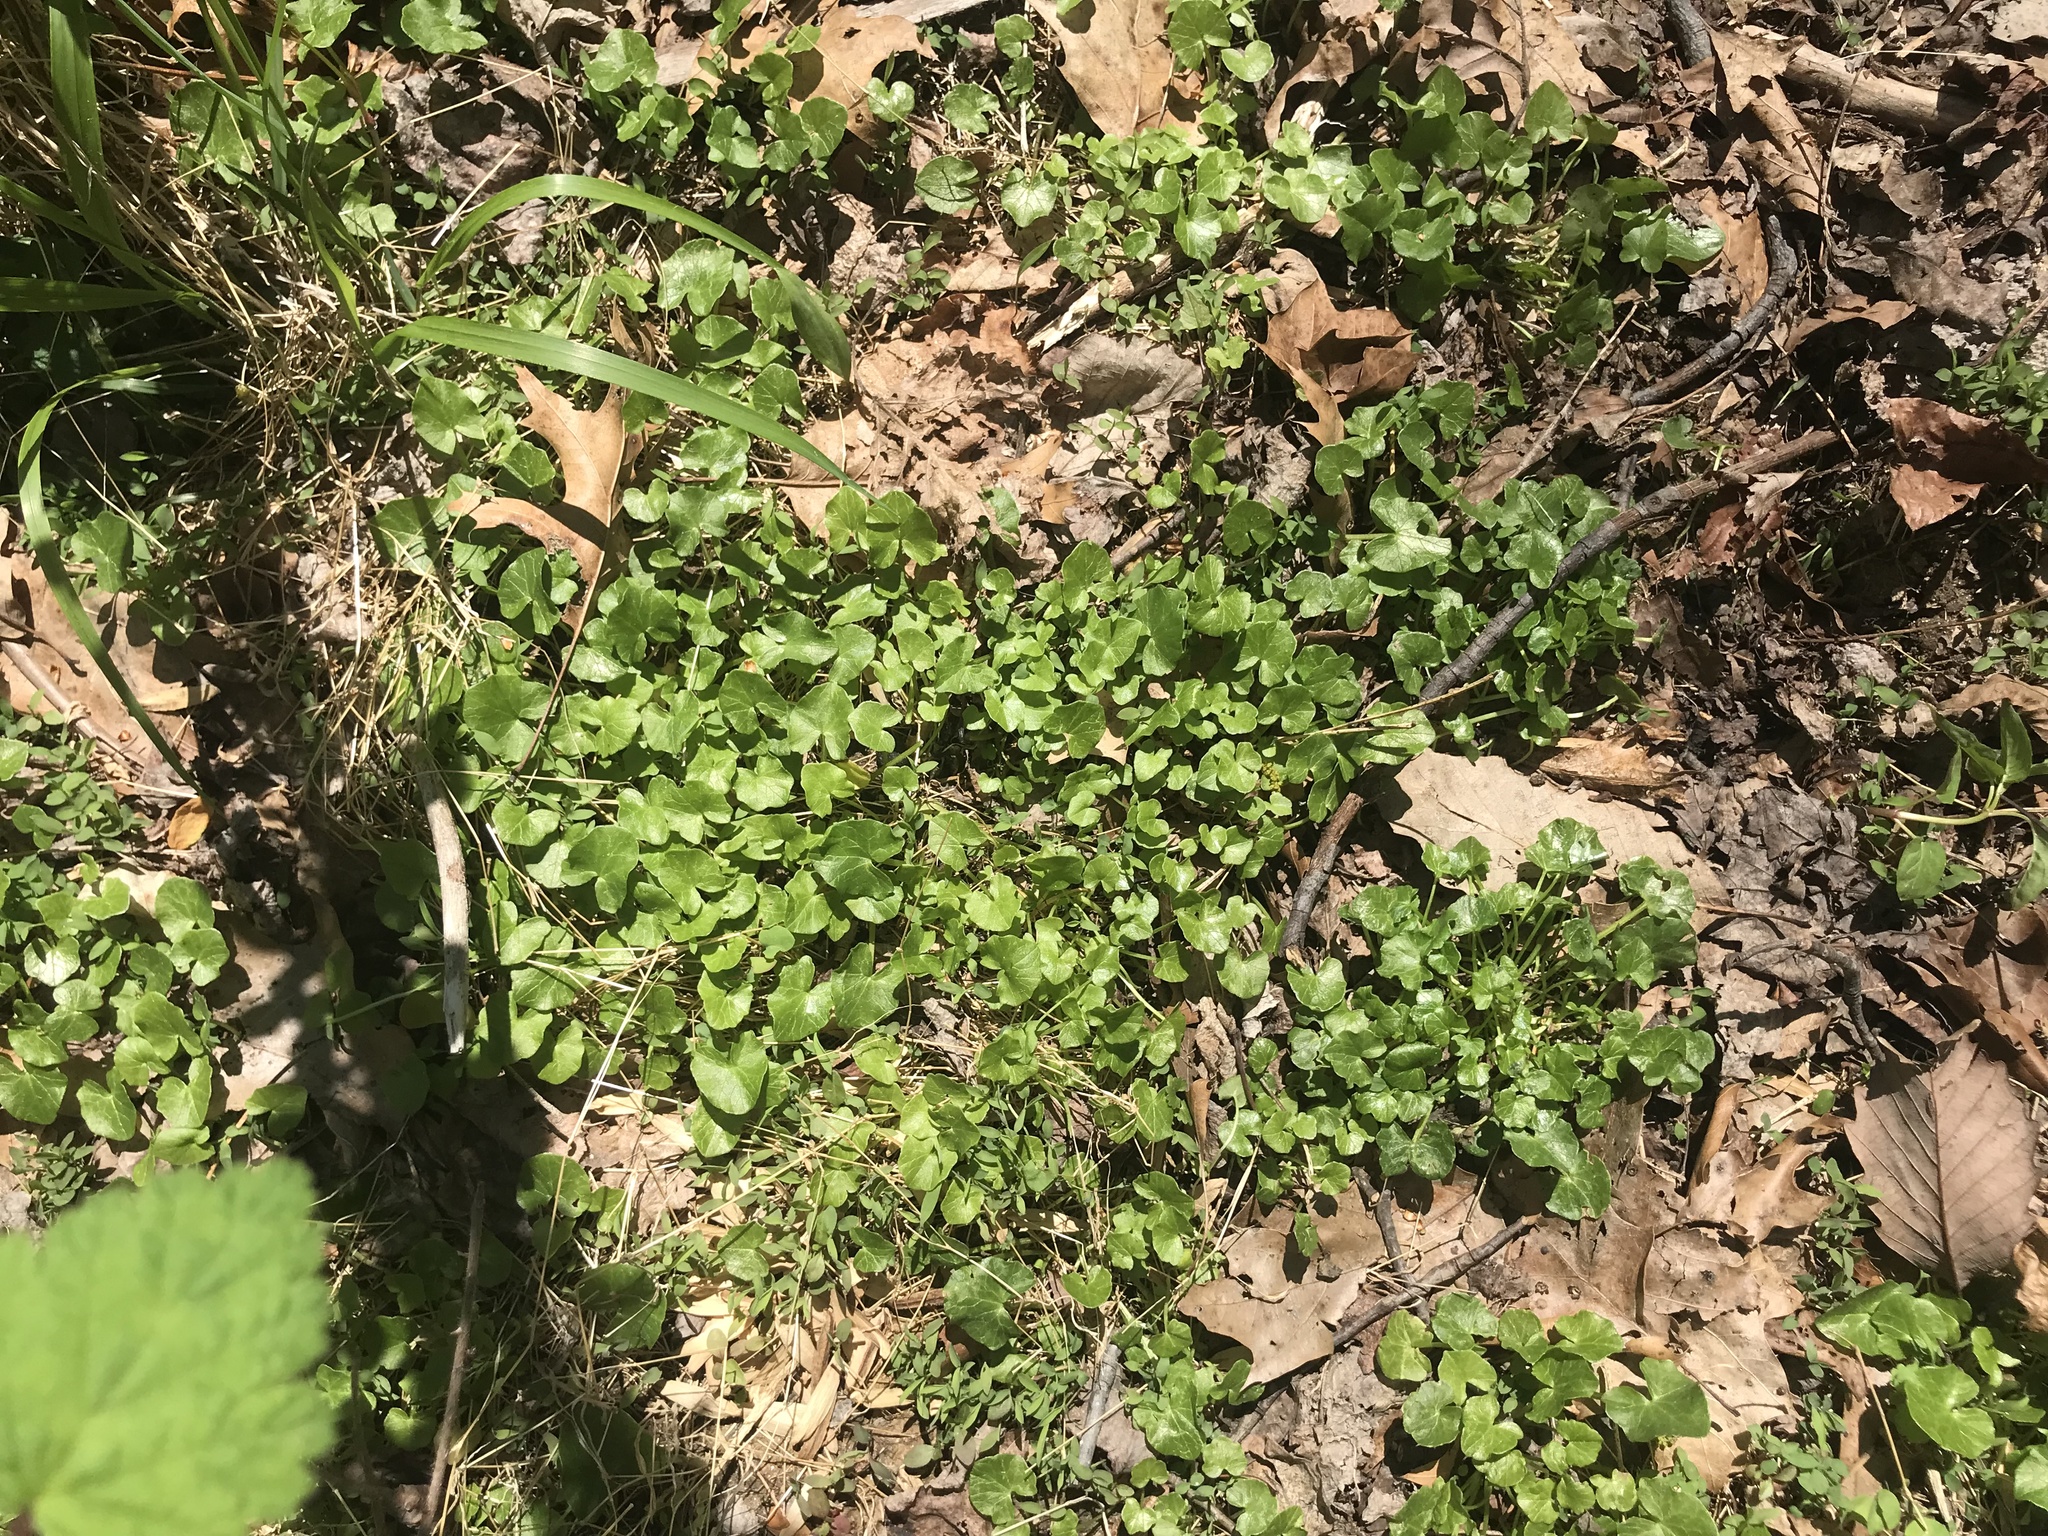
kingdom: Plantae
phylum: Tracheophyta
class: Magnoliopsida
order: Ranunculales
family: Ranunculaceae
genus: Ficaria
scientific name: Ficaria verna
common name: Lesser celandine
